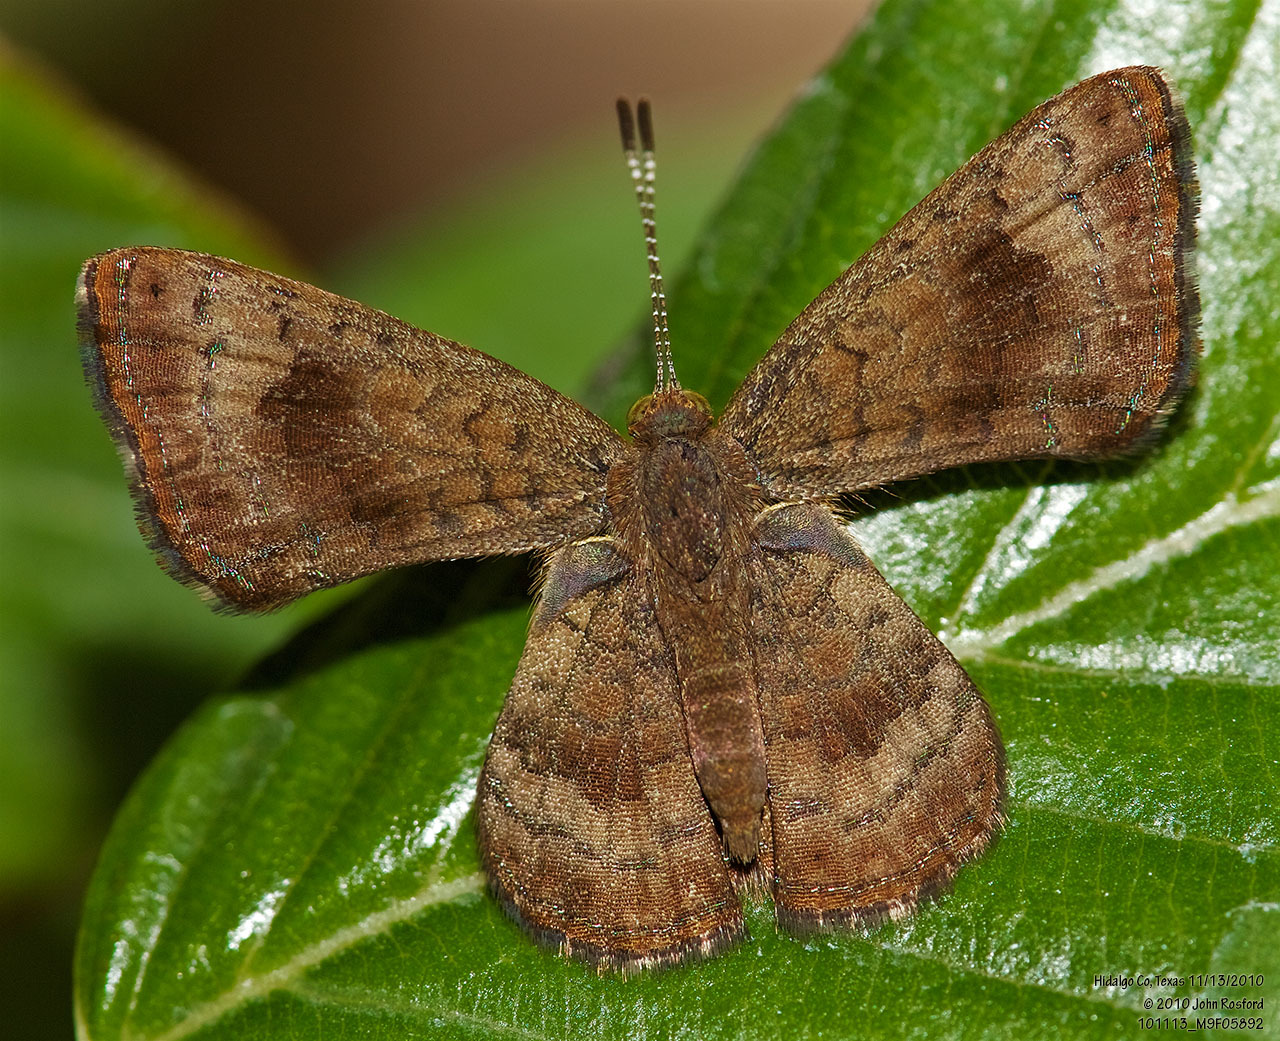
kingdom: Animalia
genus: Calephelis
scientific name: Calephelis nemesis
